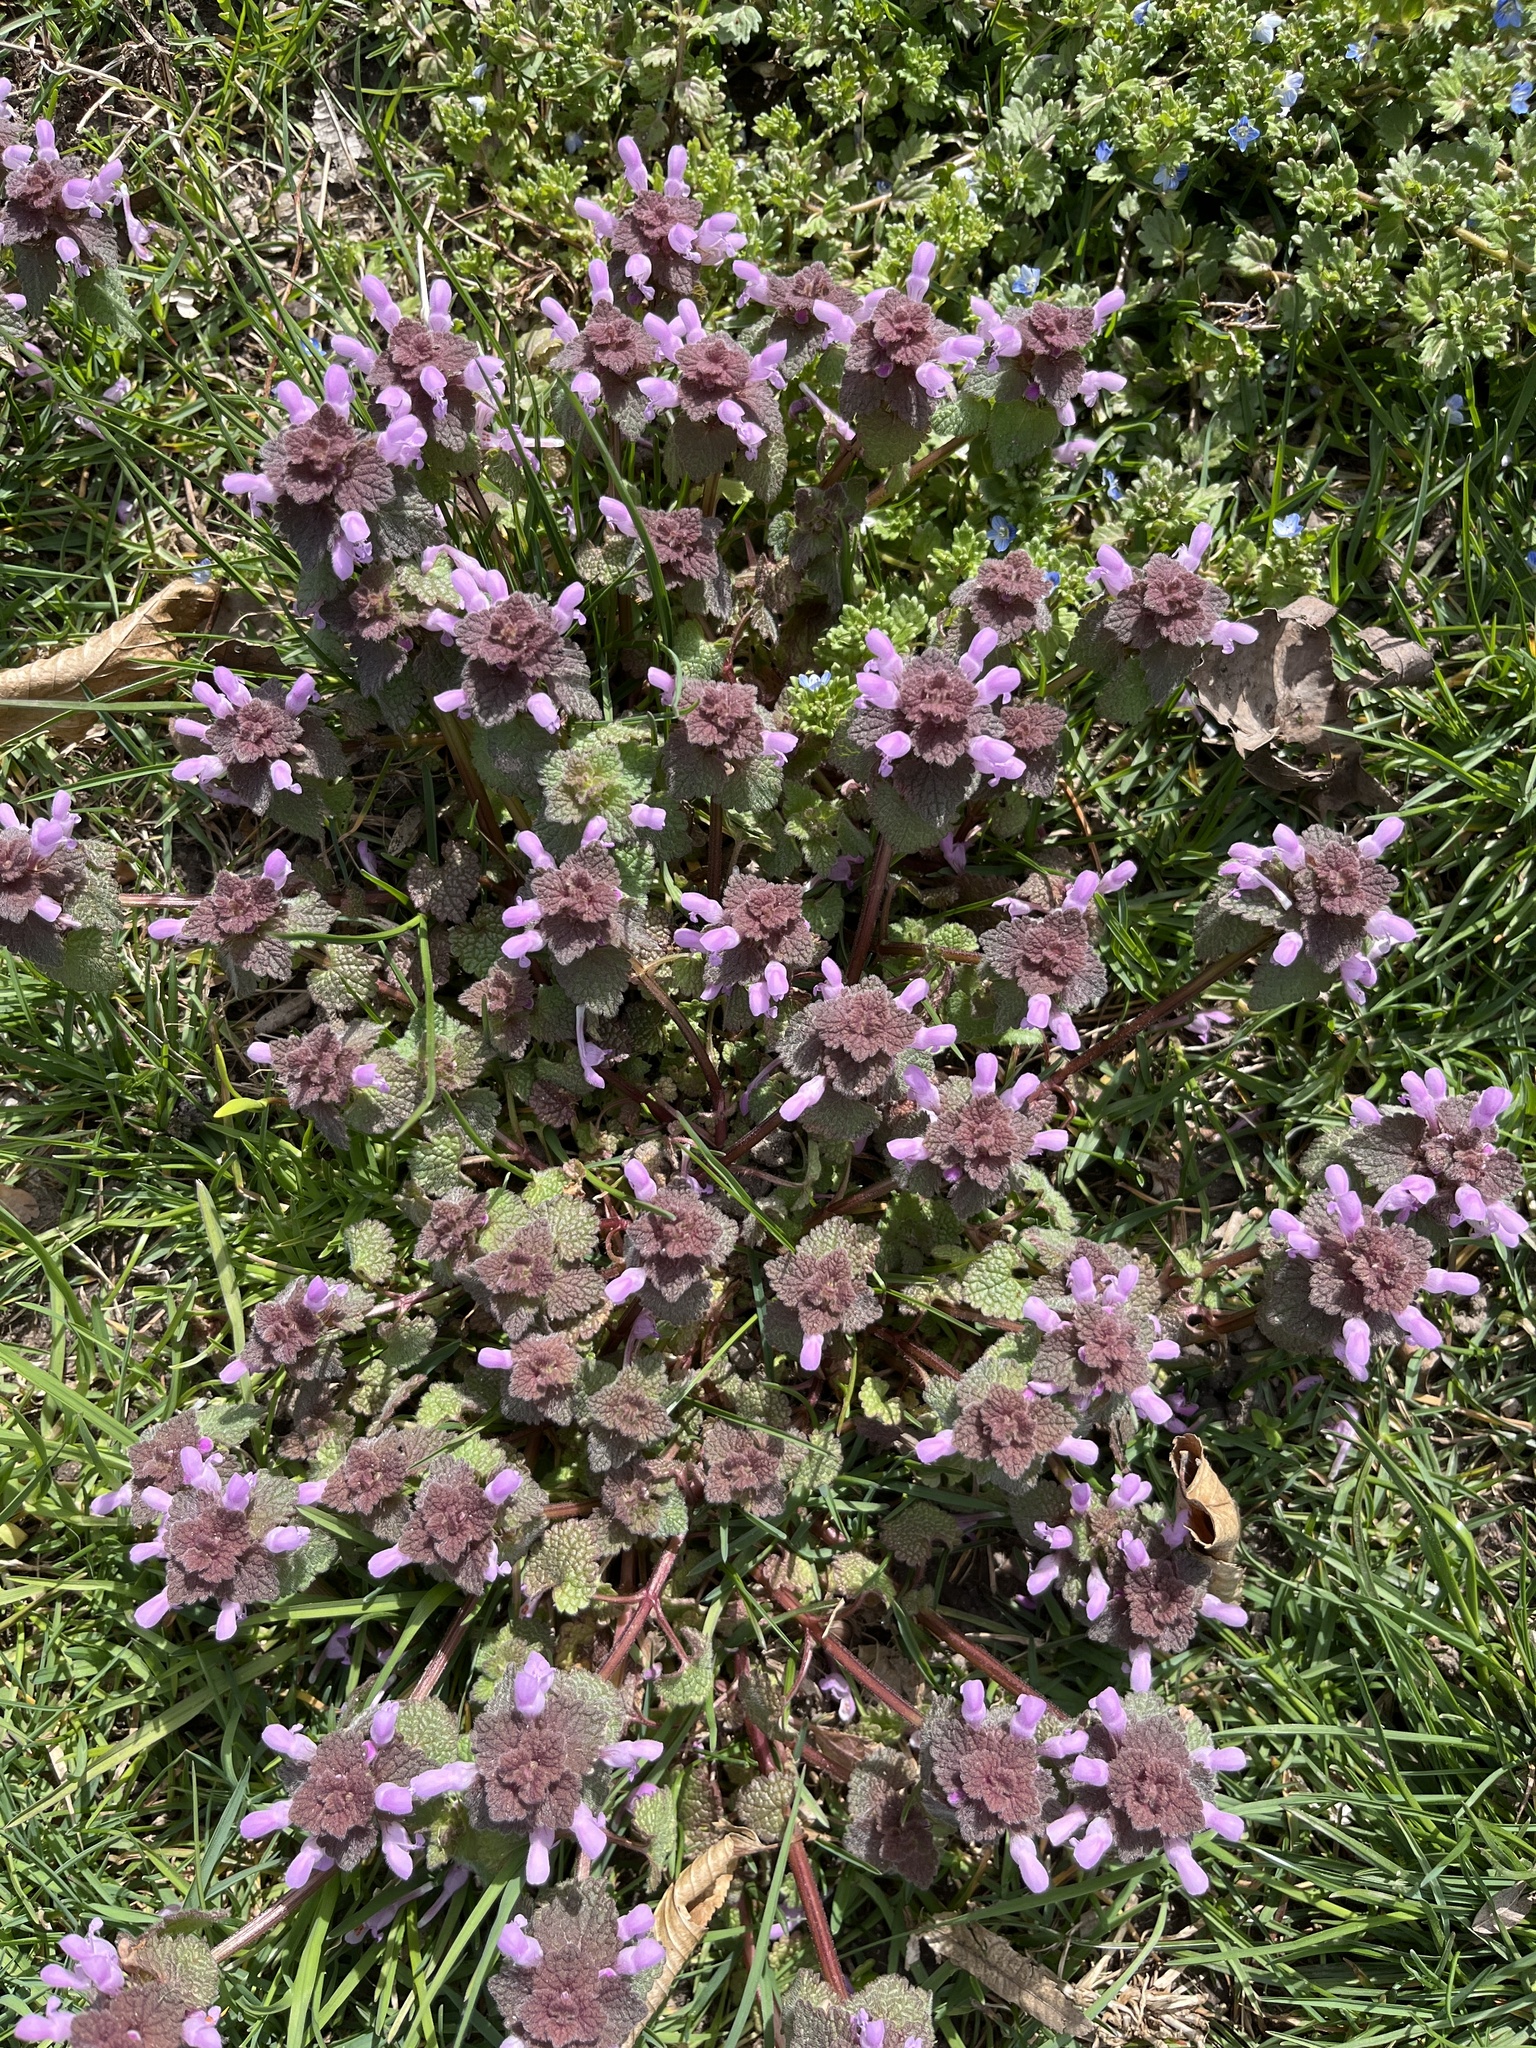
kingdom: Plantae
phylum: Tracheophyta
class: Magnoliopsida
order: Lamiales
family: Lamiaceae
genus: Lamium
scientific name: Lamium purpureum
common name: Red dead-nettle
